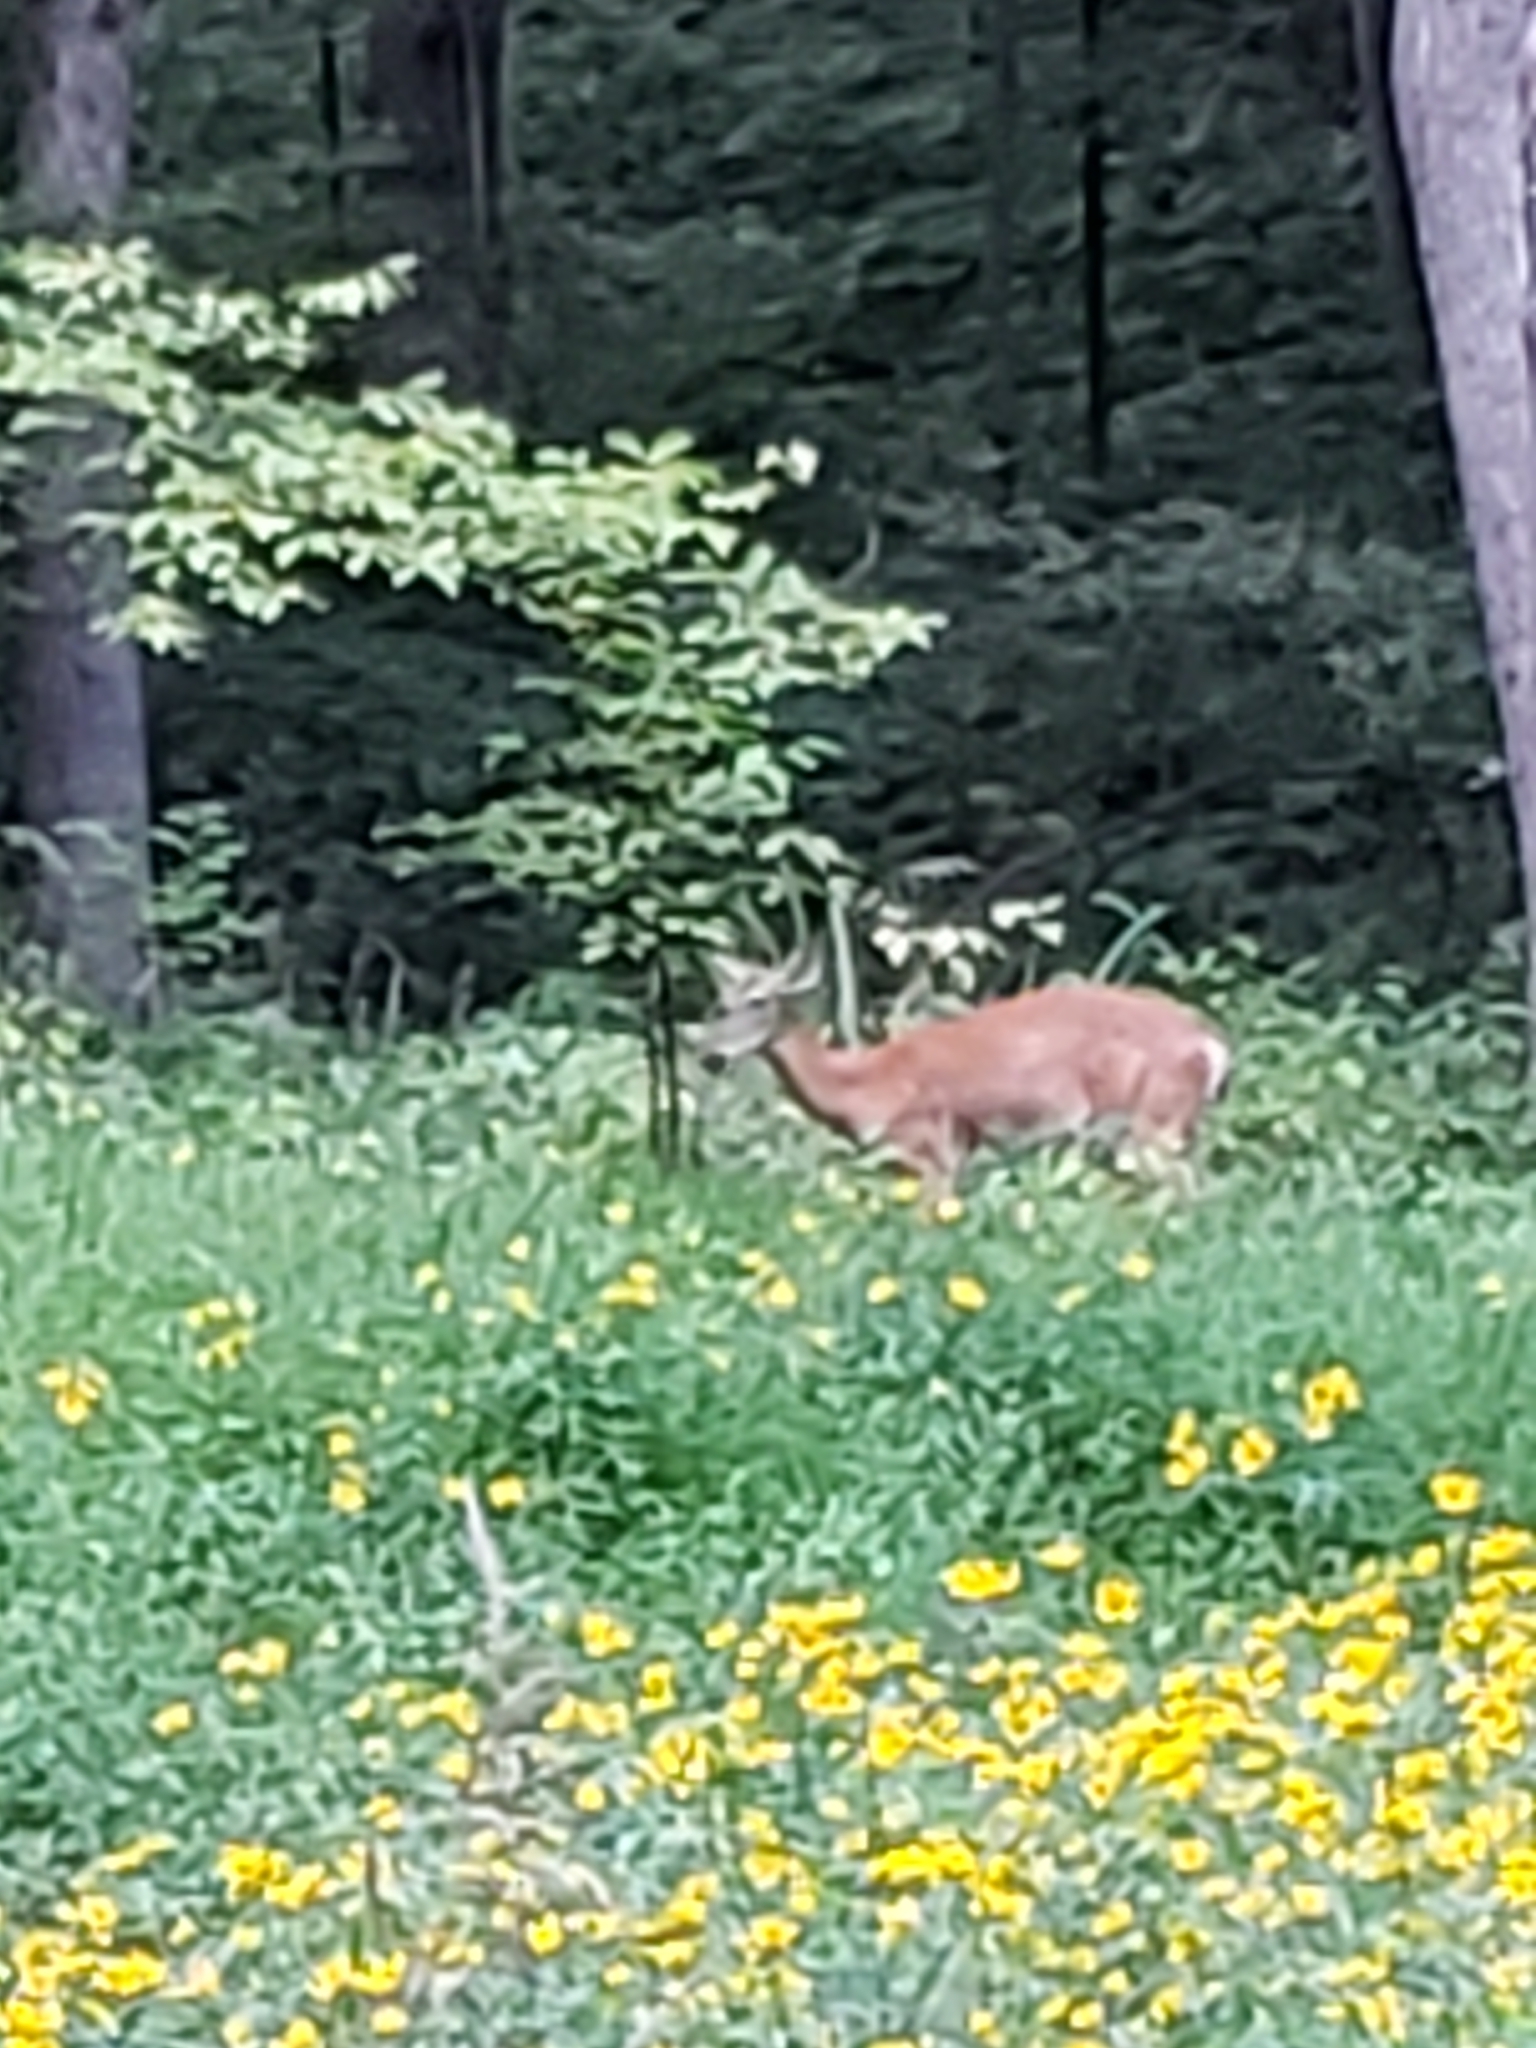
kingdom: Animalia
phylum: Chordata
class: Mammalia
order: Artiodactyla
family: Cervidae
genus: Odocoileus
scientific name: Odocoileus virginianus
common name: White-tailed deer
